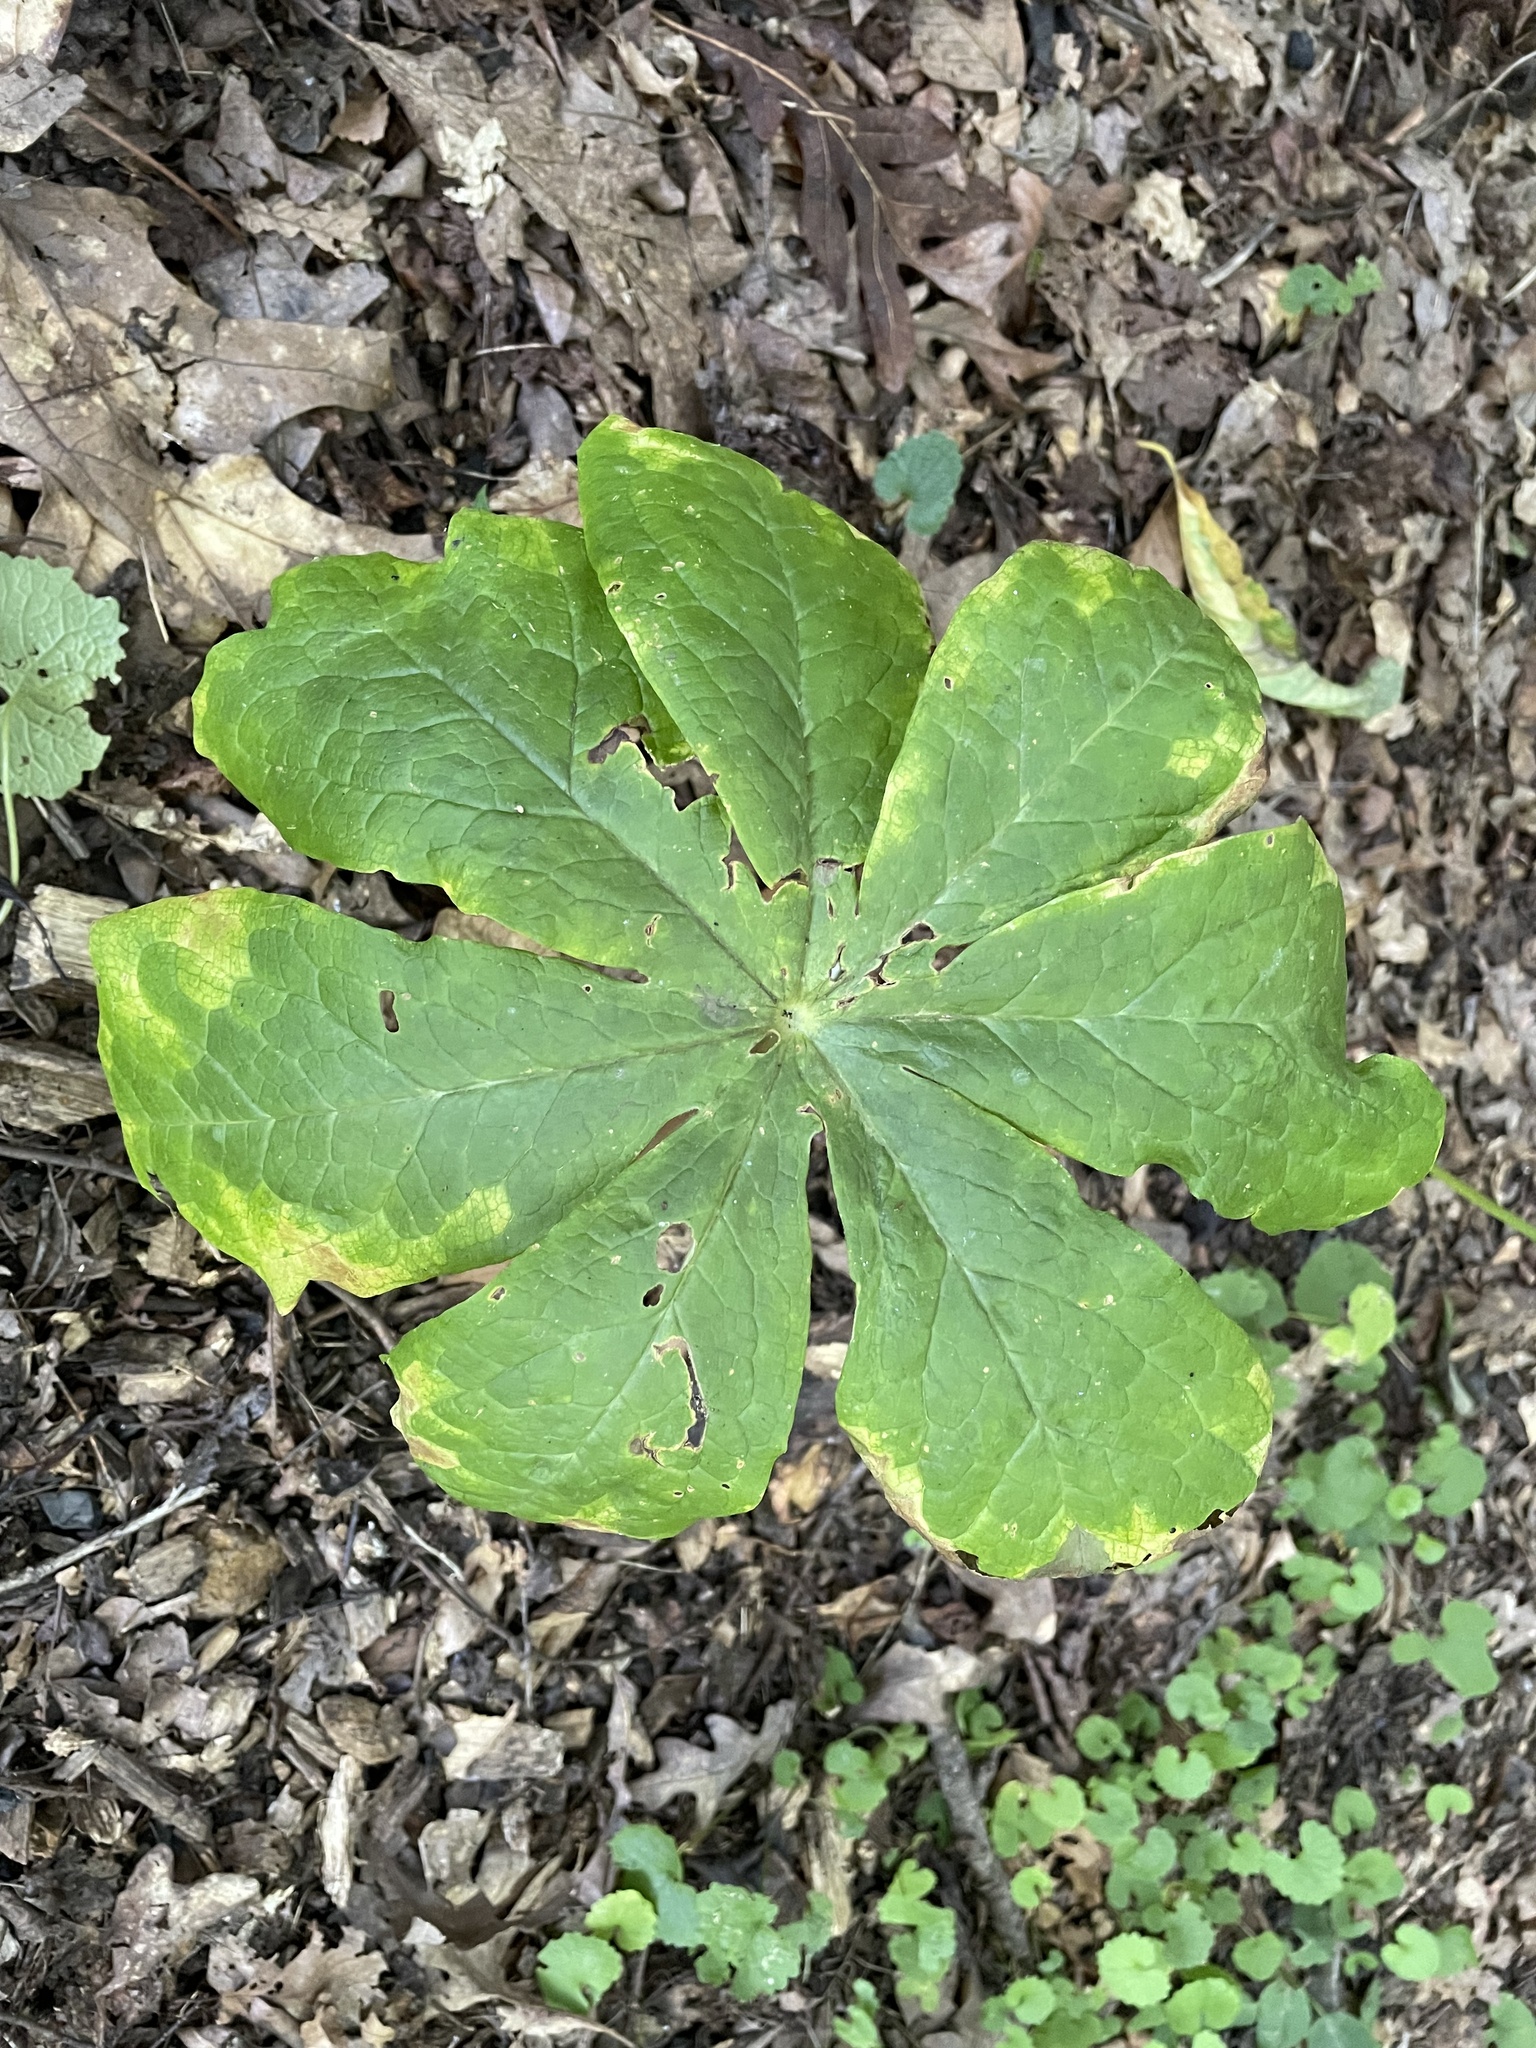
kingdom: Plantae
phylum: Tracheophyta
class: Magnoliopsida
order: Ranunculales
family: Berberidaceae
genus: Podophyllum
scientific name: Podophyllum peltatum
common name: Wild mandrake
